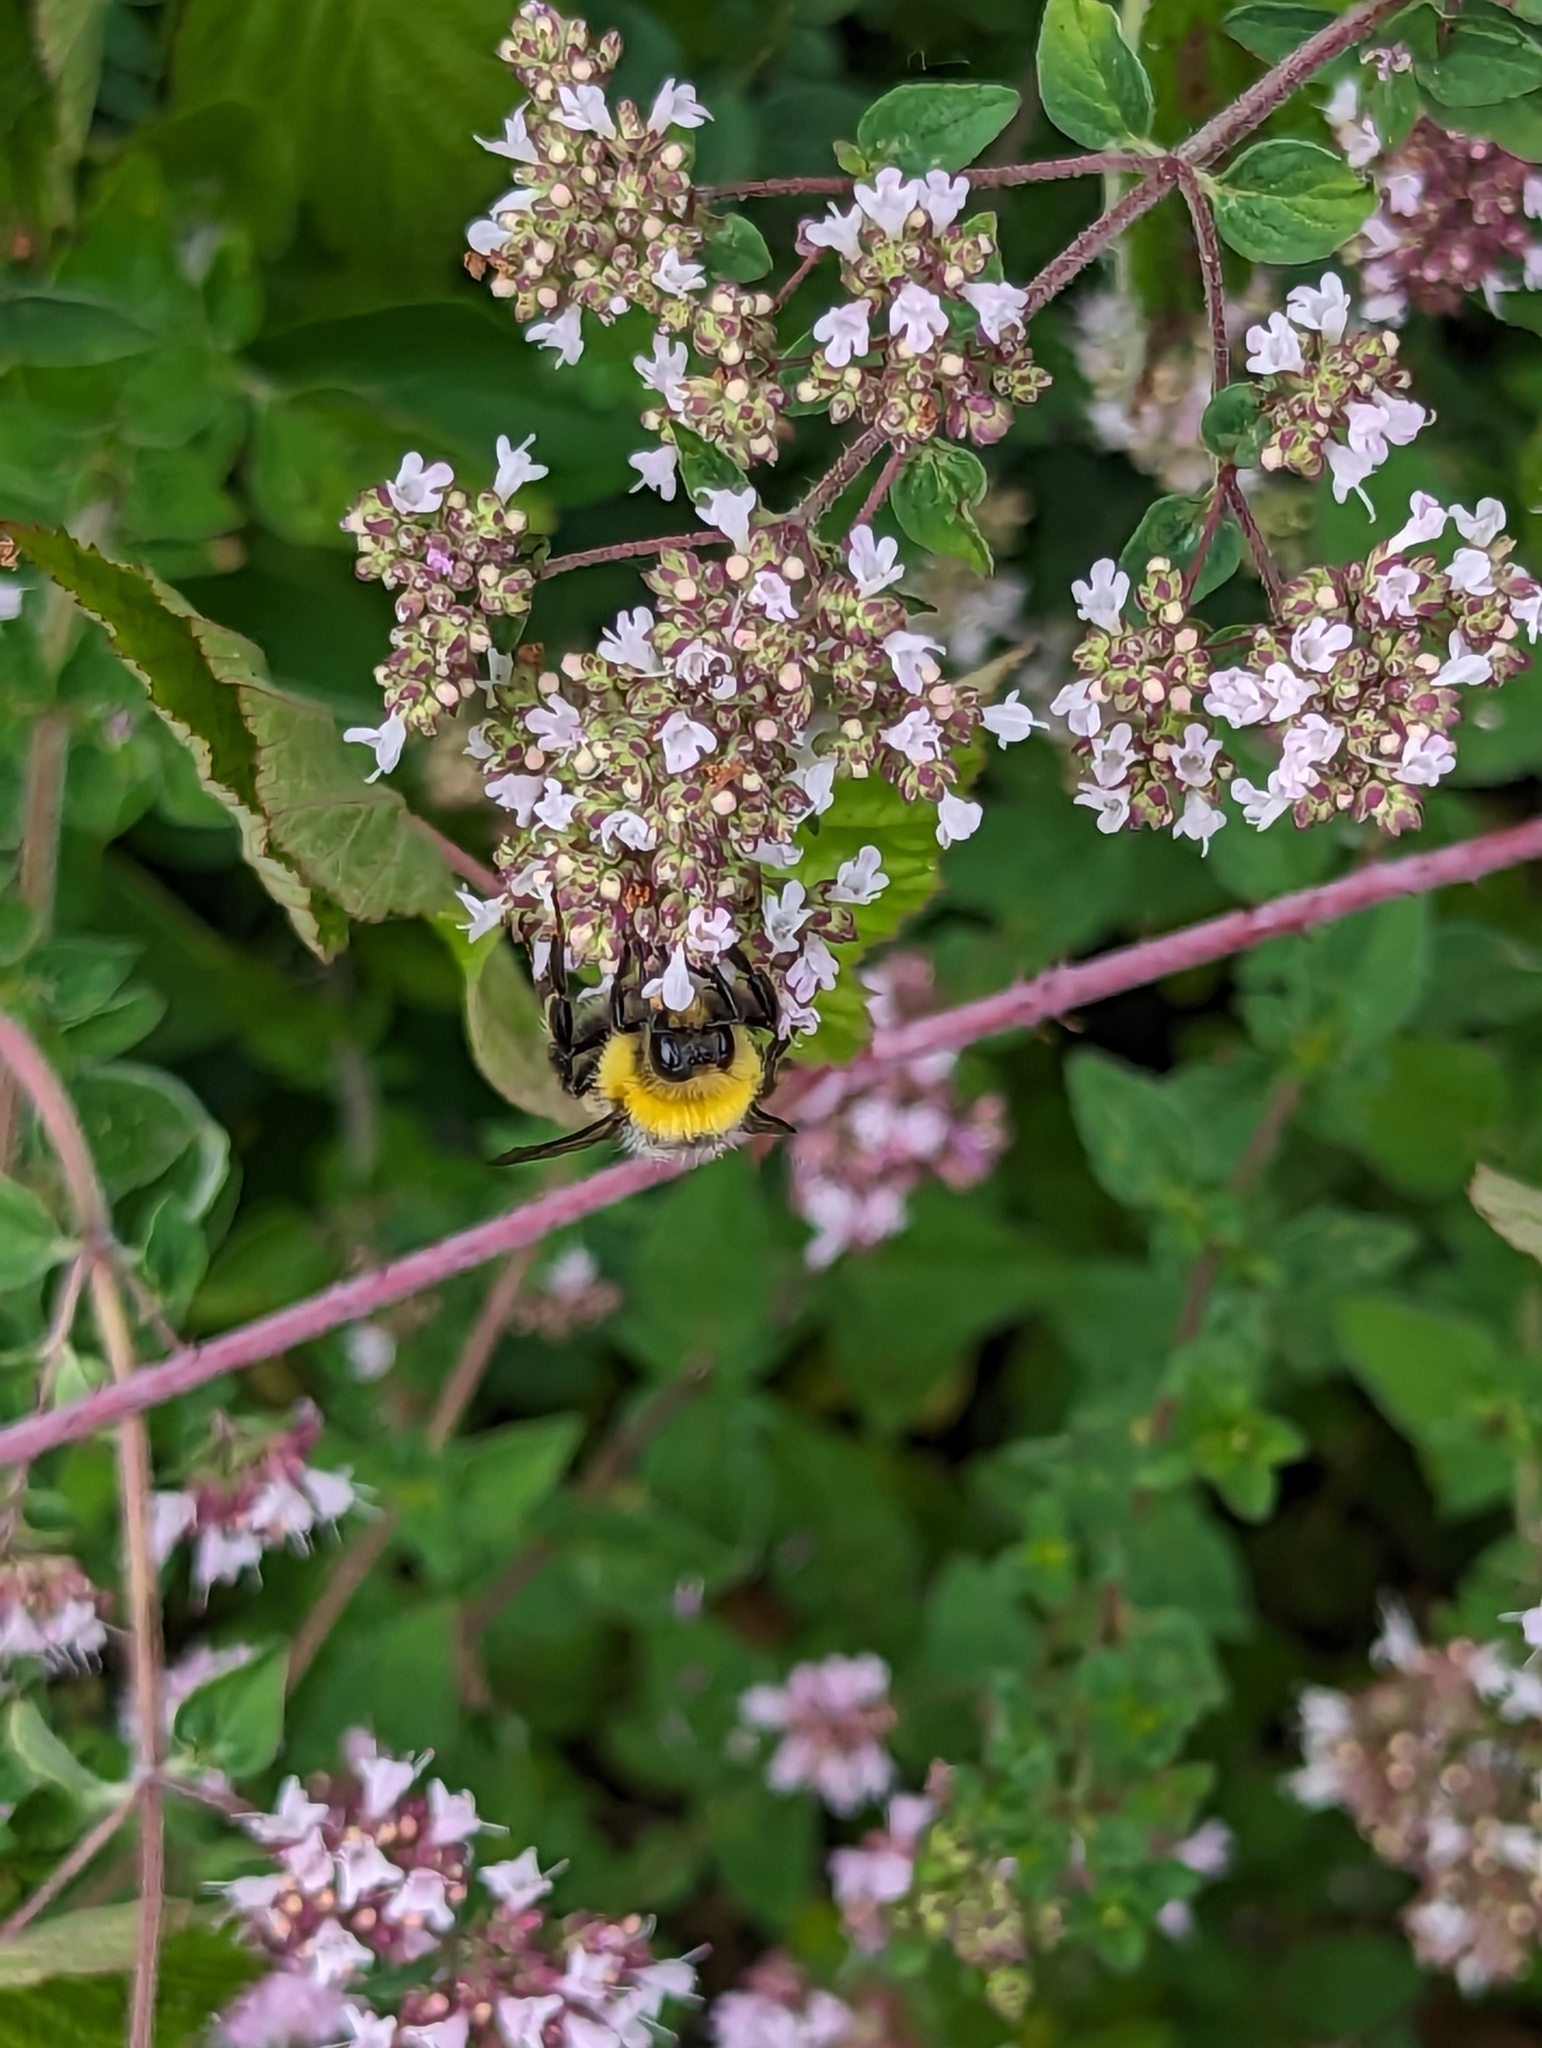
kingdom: Animalia
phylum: Arthropoda
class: Insecta
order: Hymenoptera
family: Apidae
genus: Bombus
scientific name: Bombus lucorum
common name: White-tailed bumblebee
